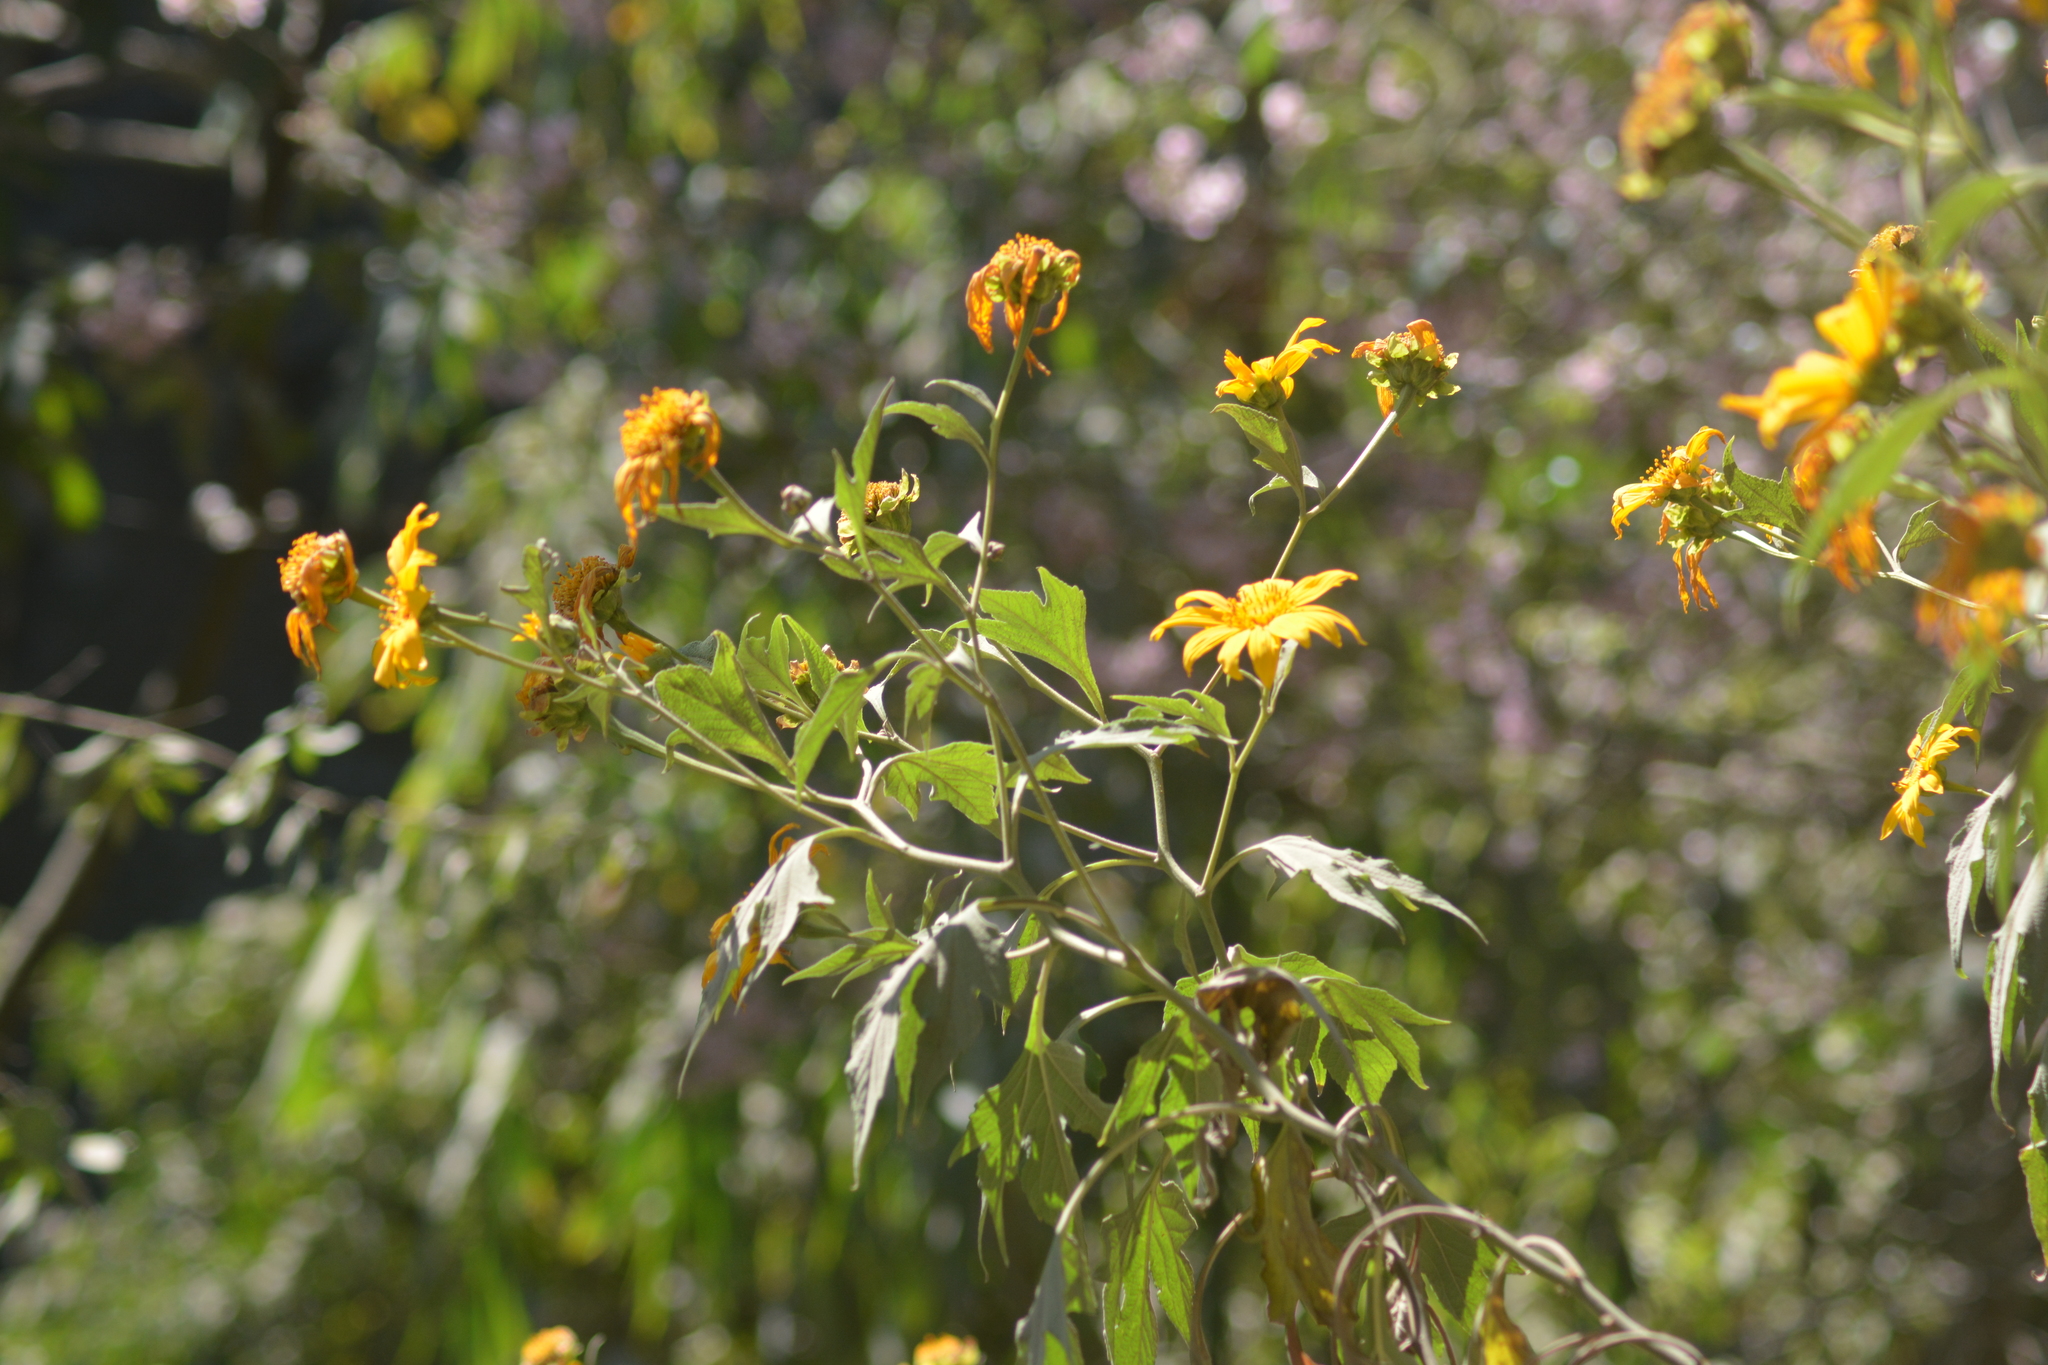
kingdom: Plantae
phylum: Tracheophyta
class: Magnoliopsida
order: Asterales
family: Asteraceae
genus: Tithonia
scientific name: Tithonia diversifolia
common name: Tree marigold
